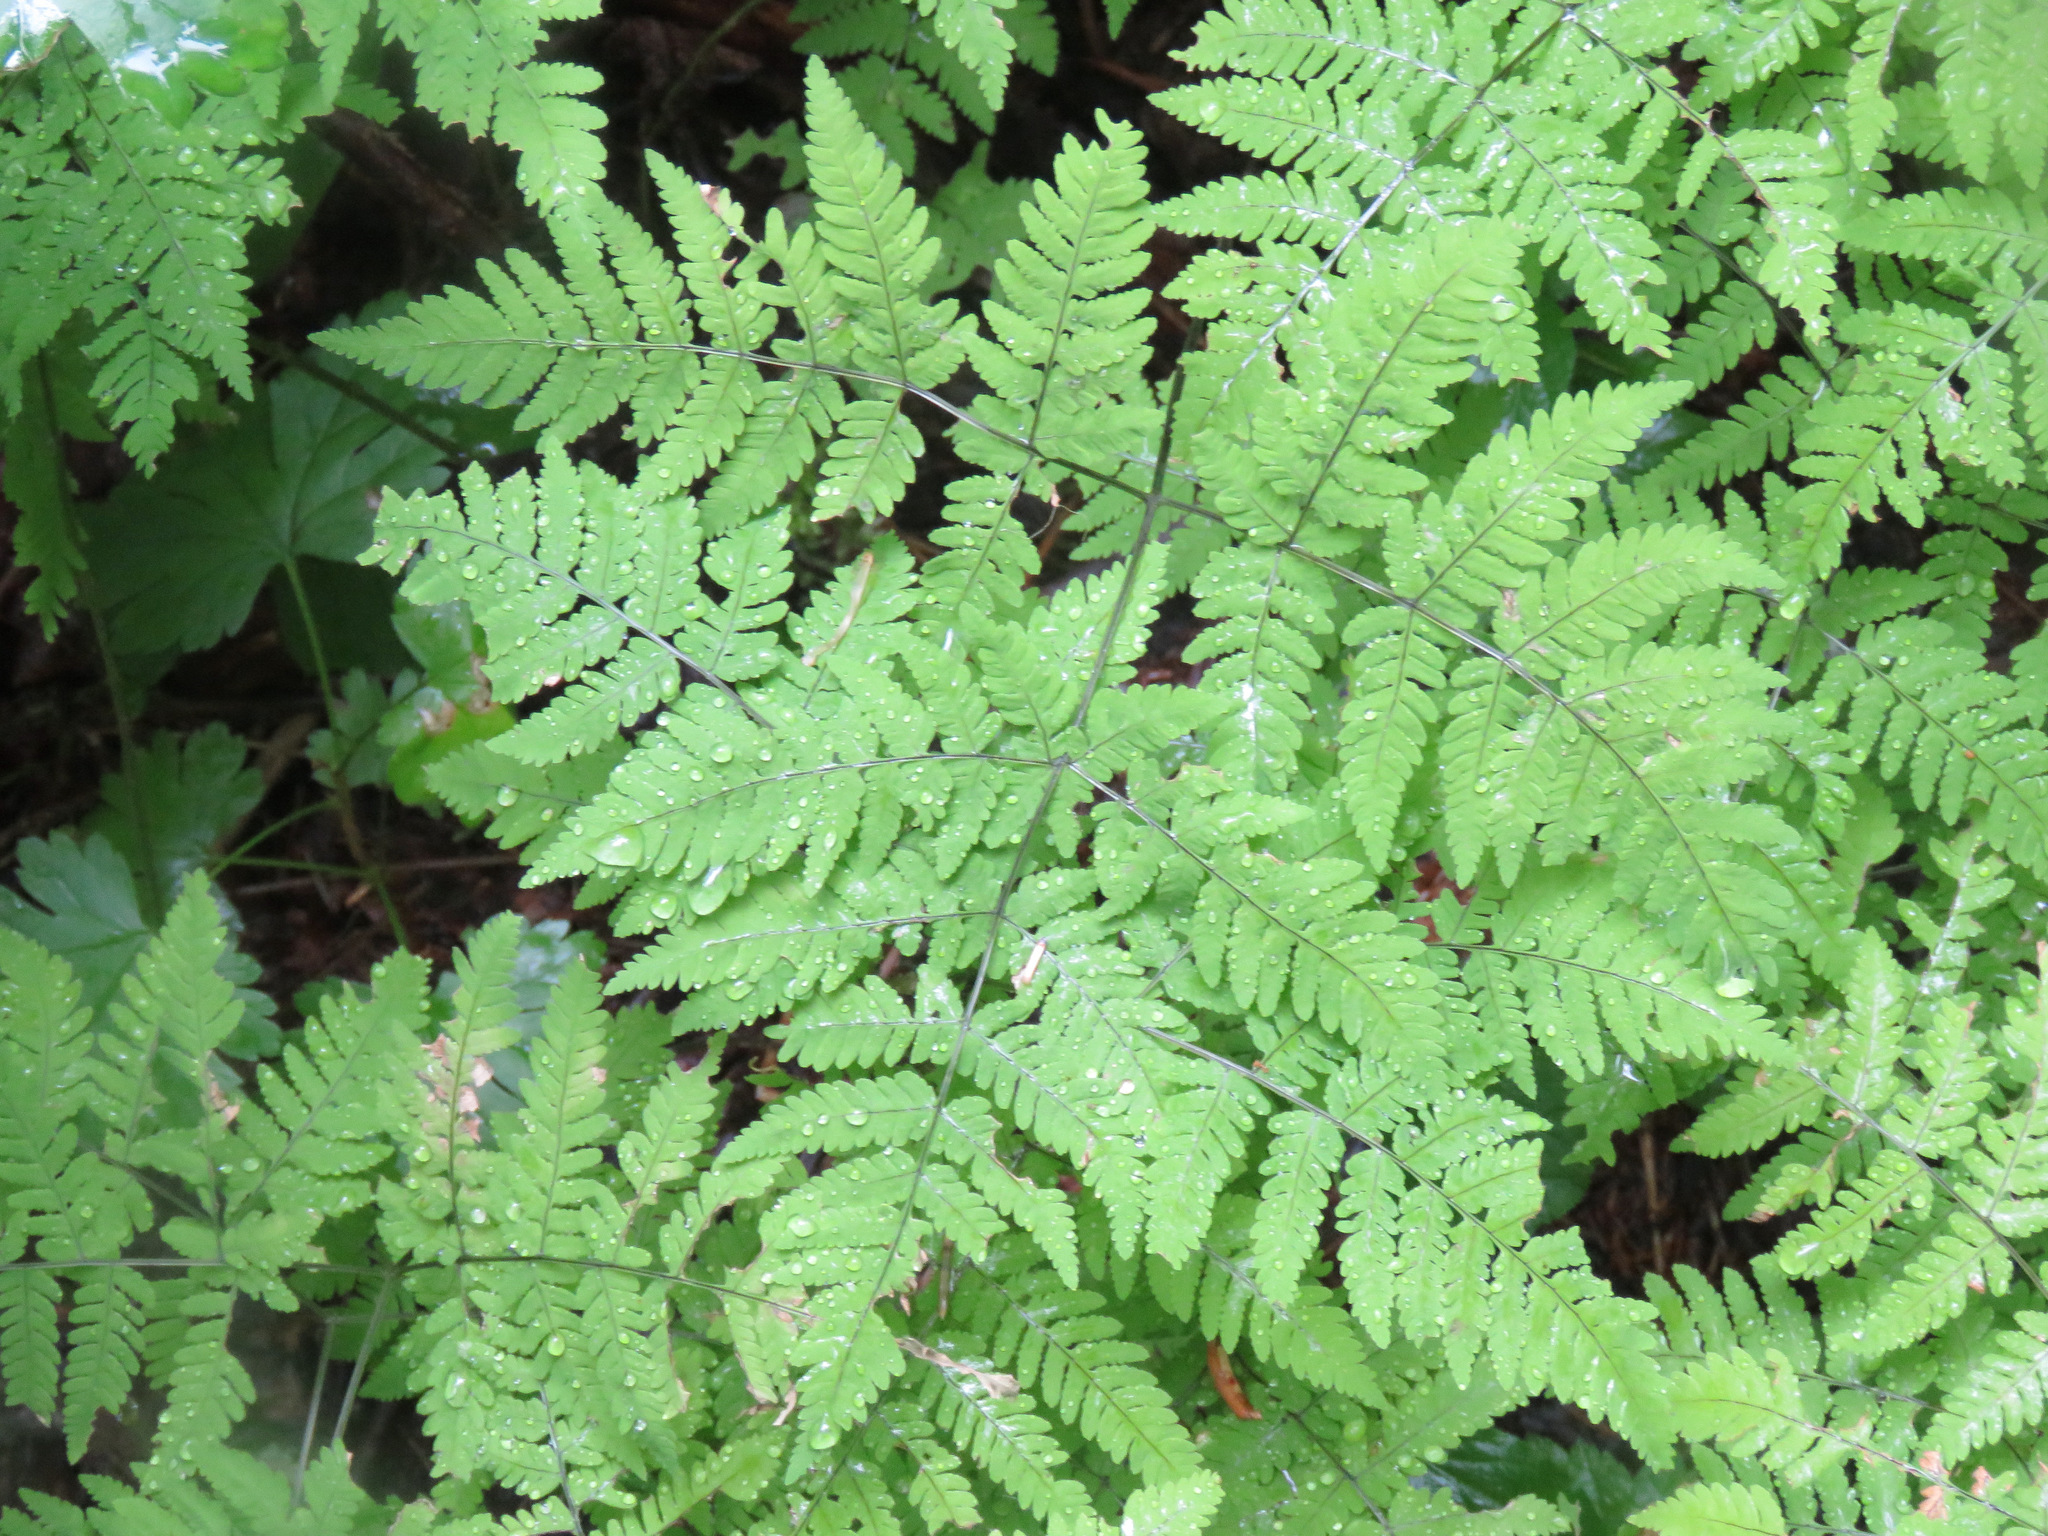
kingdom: Plantae
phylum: Tracheophyta
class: Polypodiopsida
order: Polypodiales
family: Cystopteridaceae
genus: Gymnocarpium
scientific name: Gymnocarpium dryopteris
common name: Oak fern
